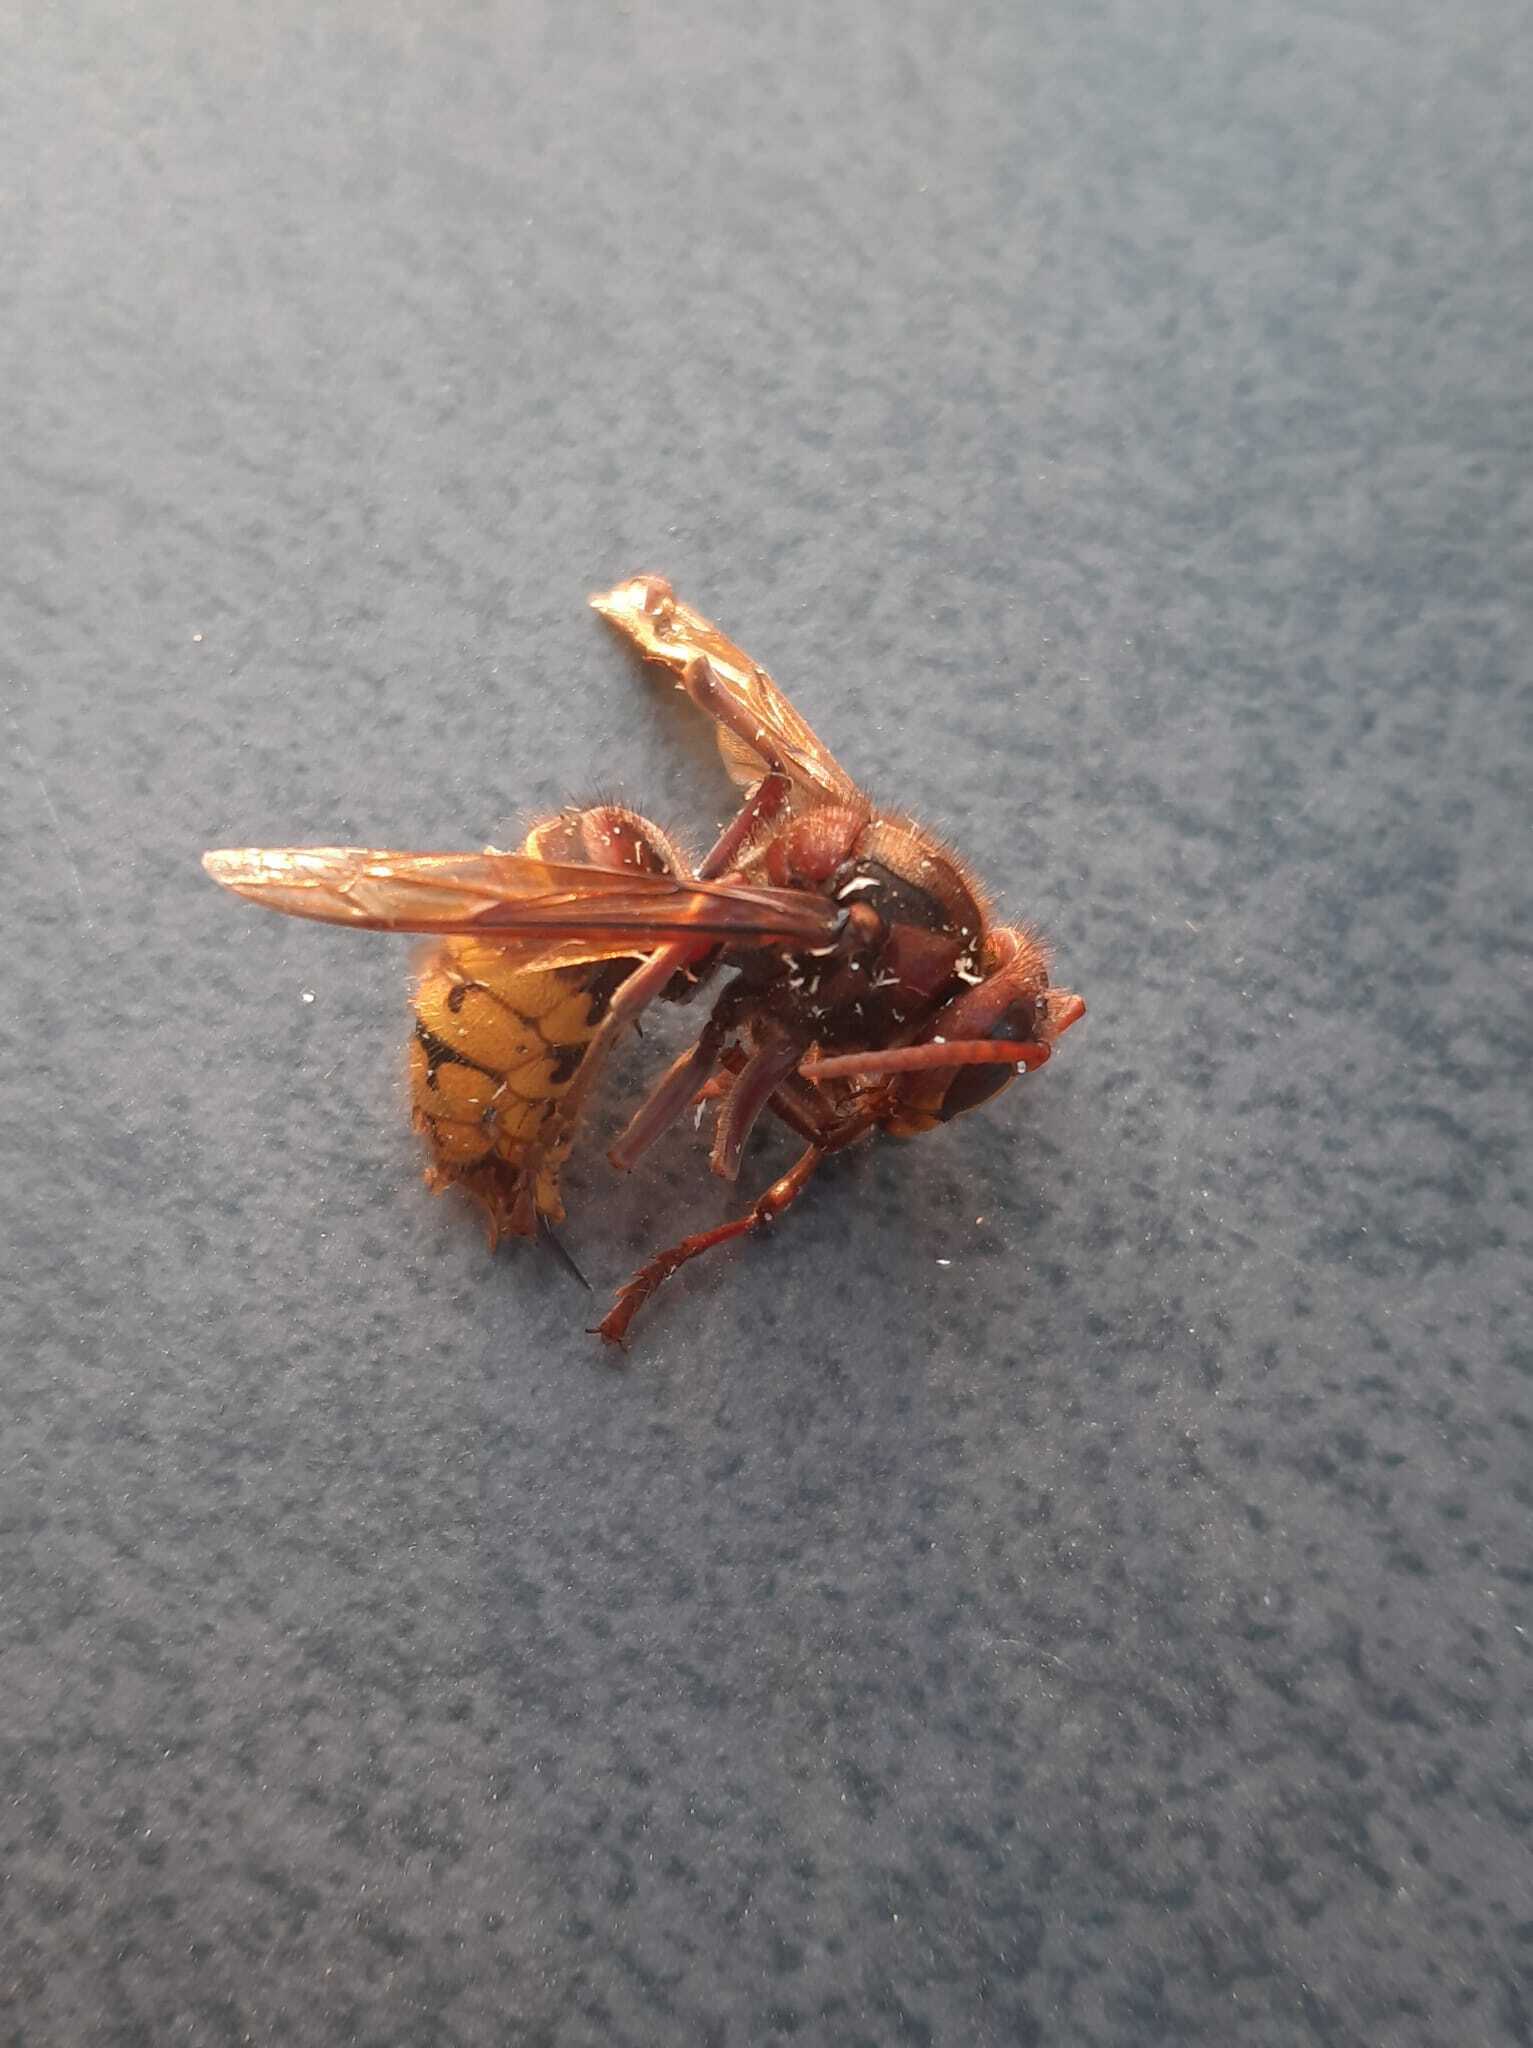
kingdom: Animalia
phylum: Arthropoda
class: Insecta
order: Hymenoptera
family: Vespidae
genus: Vespa
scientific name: Vespa crabro
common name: Hornet
